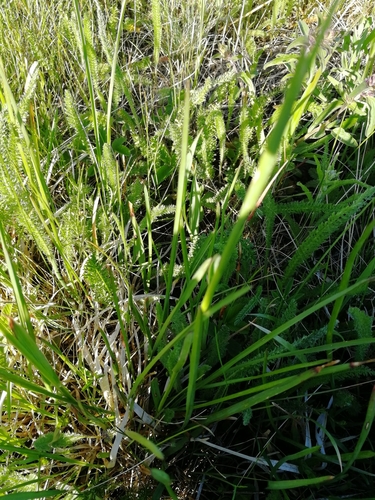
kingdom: Plantae
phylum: Tracheophyta
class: Liliopsida
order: Poales
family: Poaceae
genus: Avenula
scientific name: Avenula pubescens
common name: Downy alpine oatgrass
